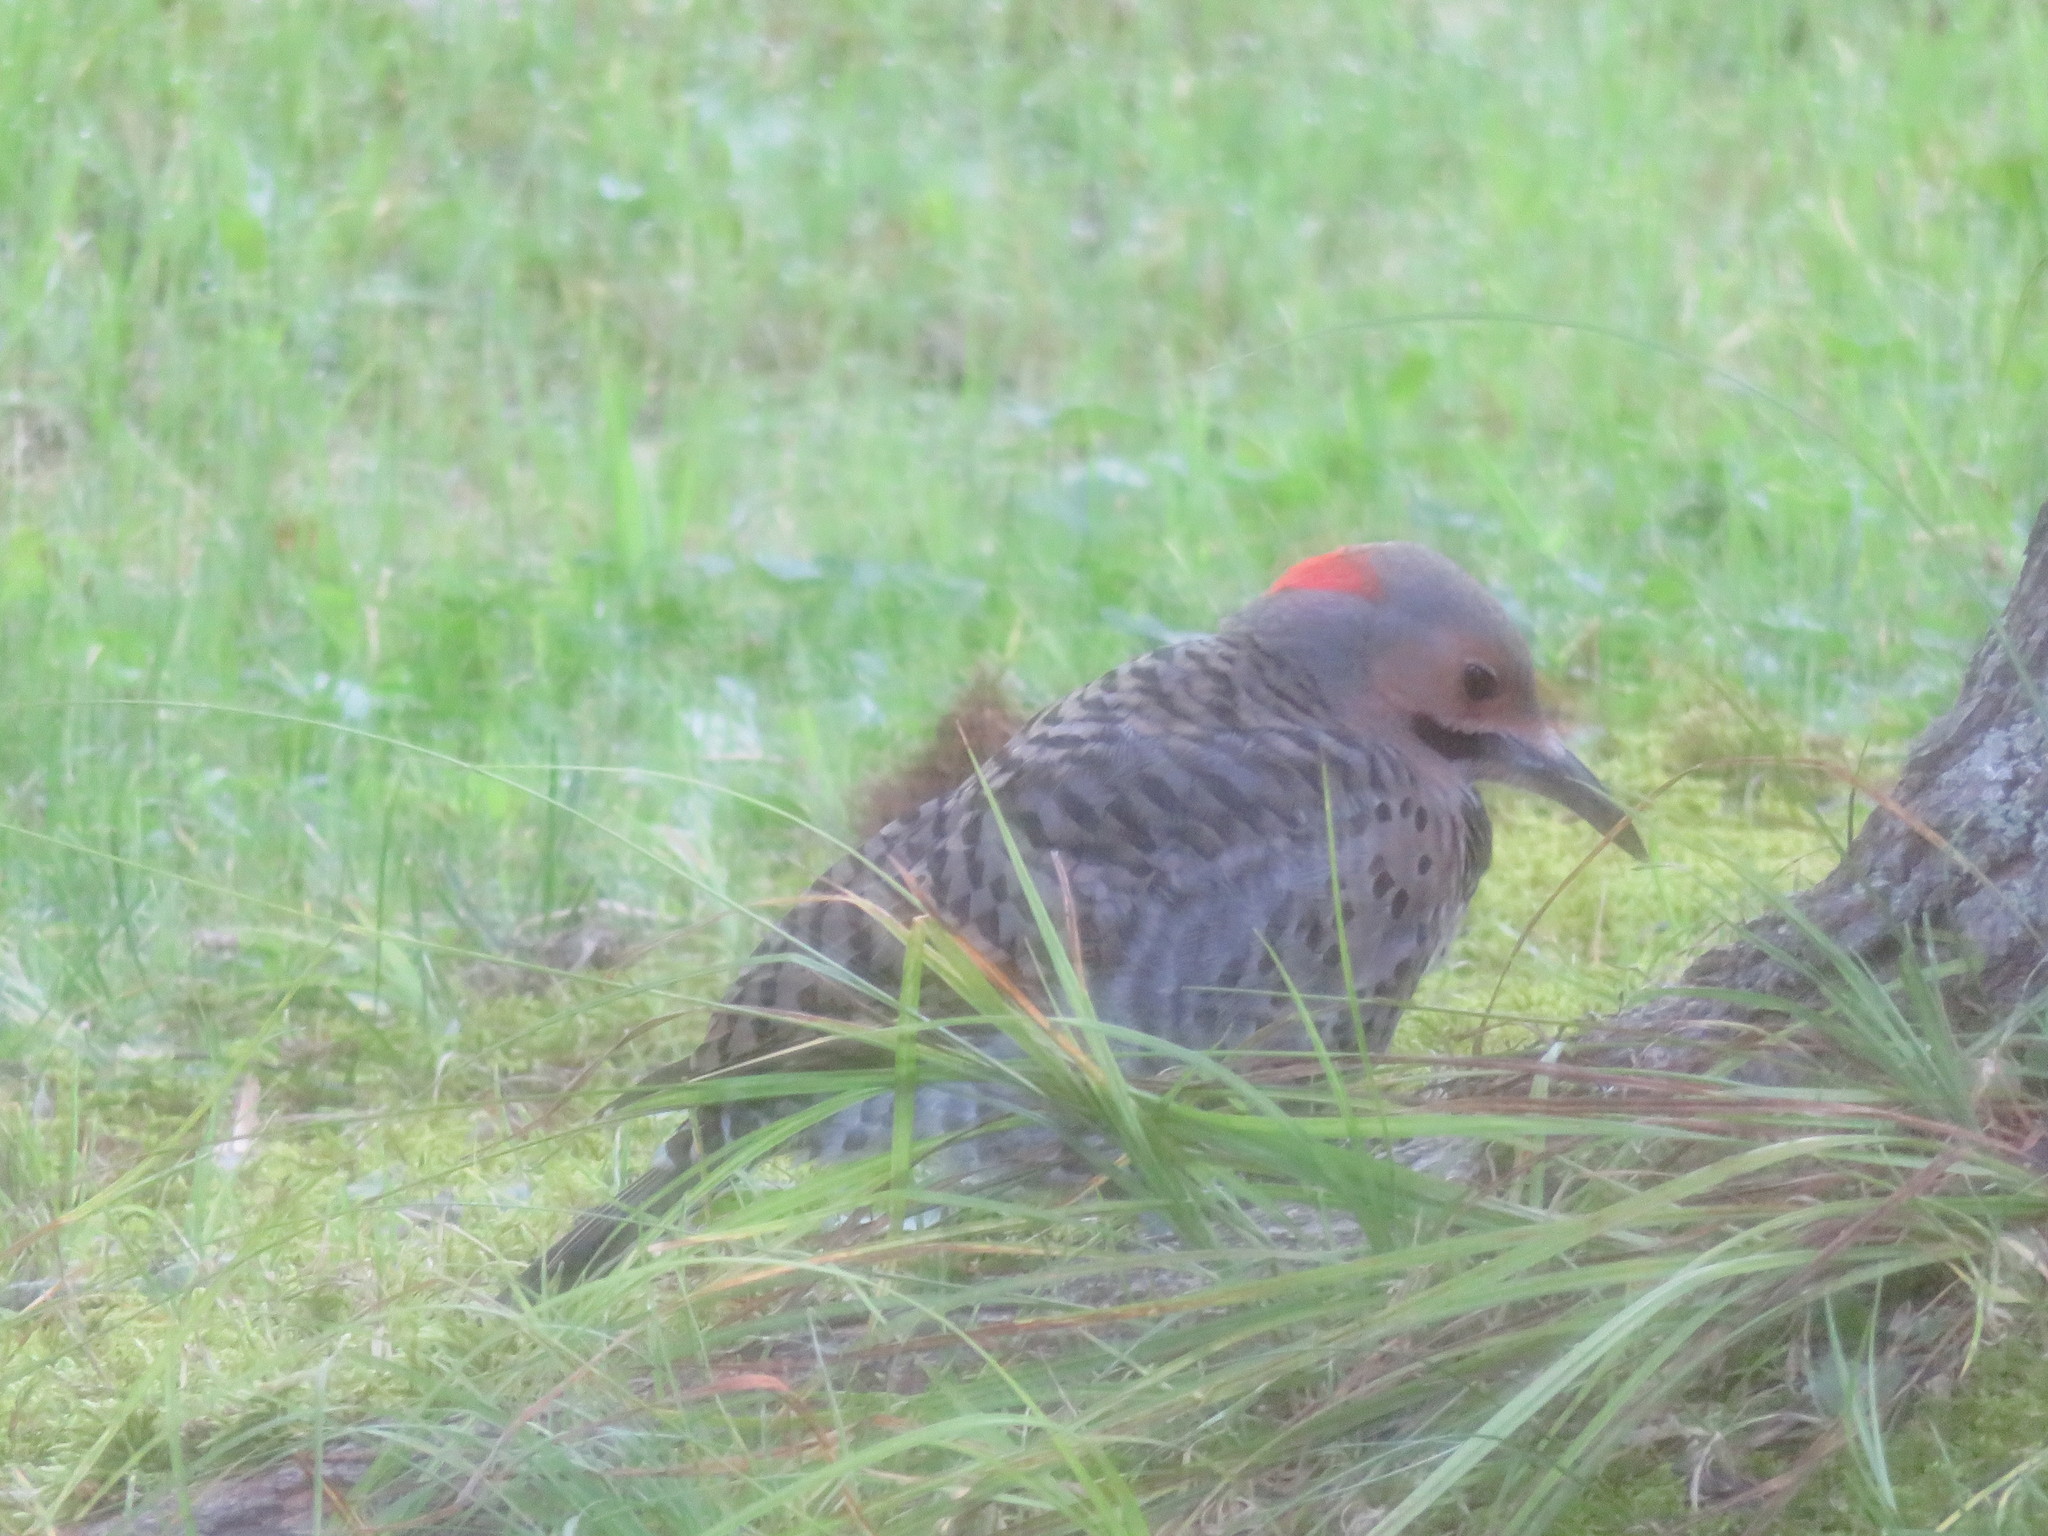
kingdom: Animalia
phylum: Chordata
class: Aves
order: Piciformes
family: Picidae
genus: Colaptes
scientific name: Colaptes auratus
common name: Northern flicker
